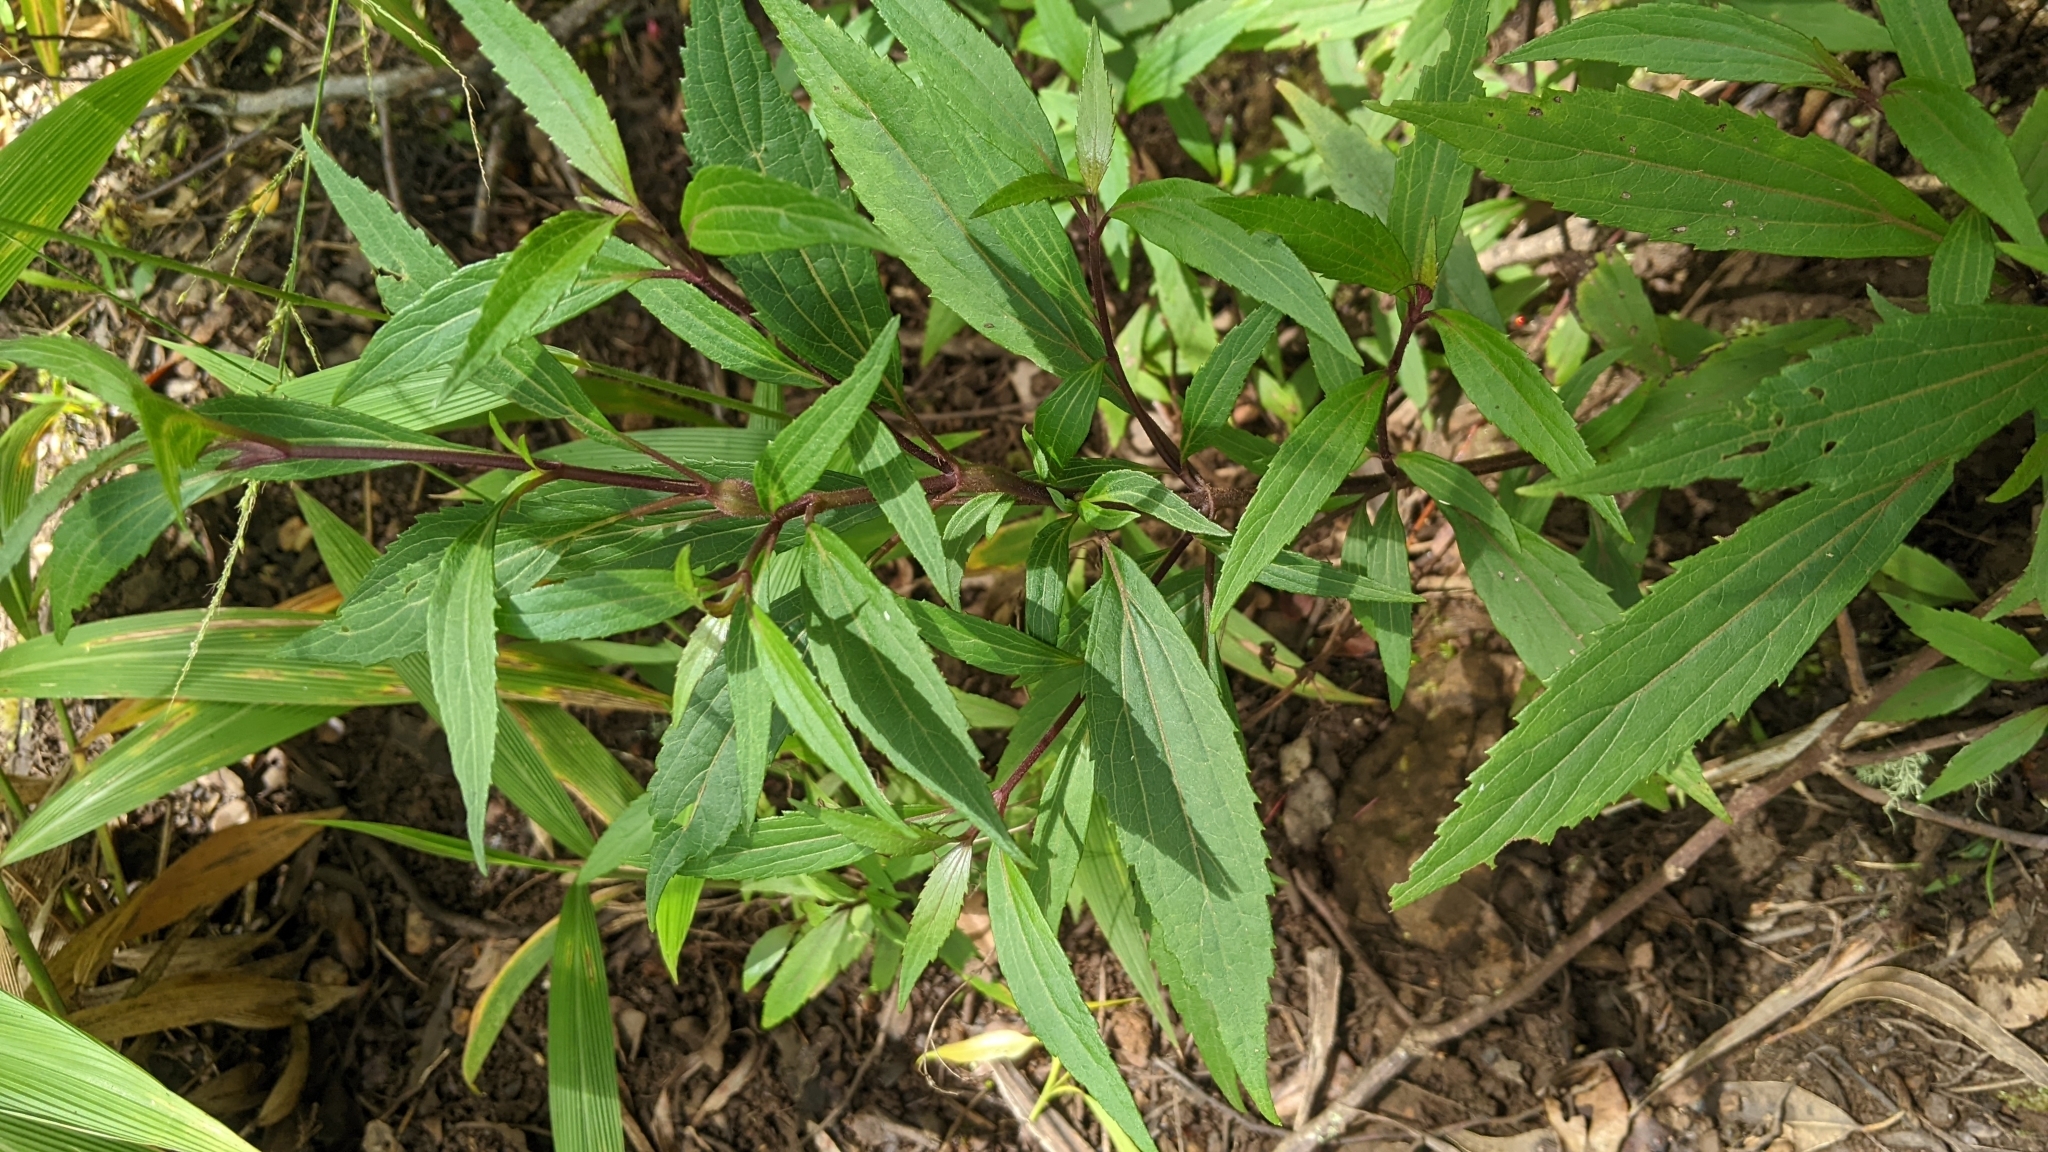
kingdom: Plantae
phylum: Tracheophyta
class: Magnoliopsida
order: Asterales
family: Asteraceae
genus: Ageratina
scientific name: Ageratina riparia
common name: Creeping croftonweed
